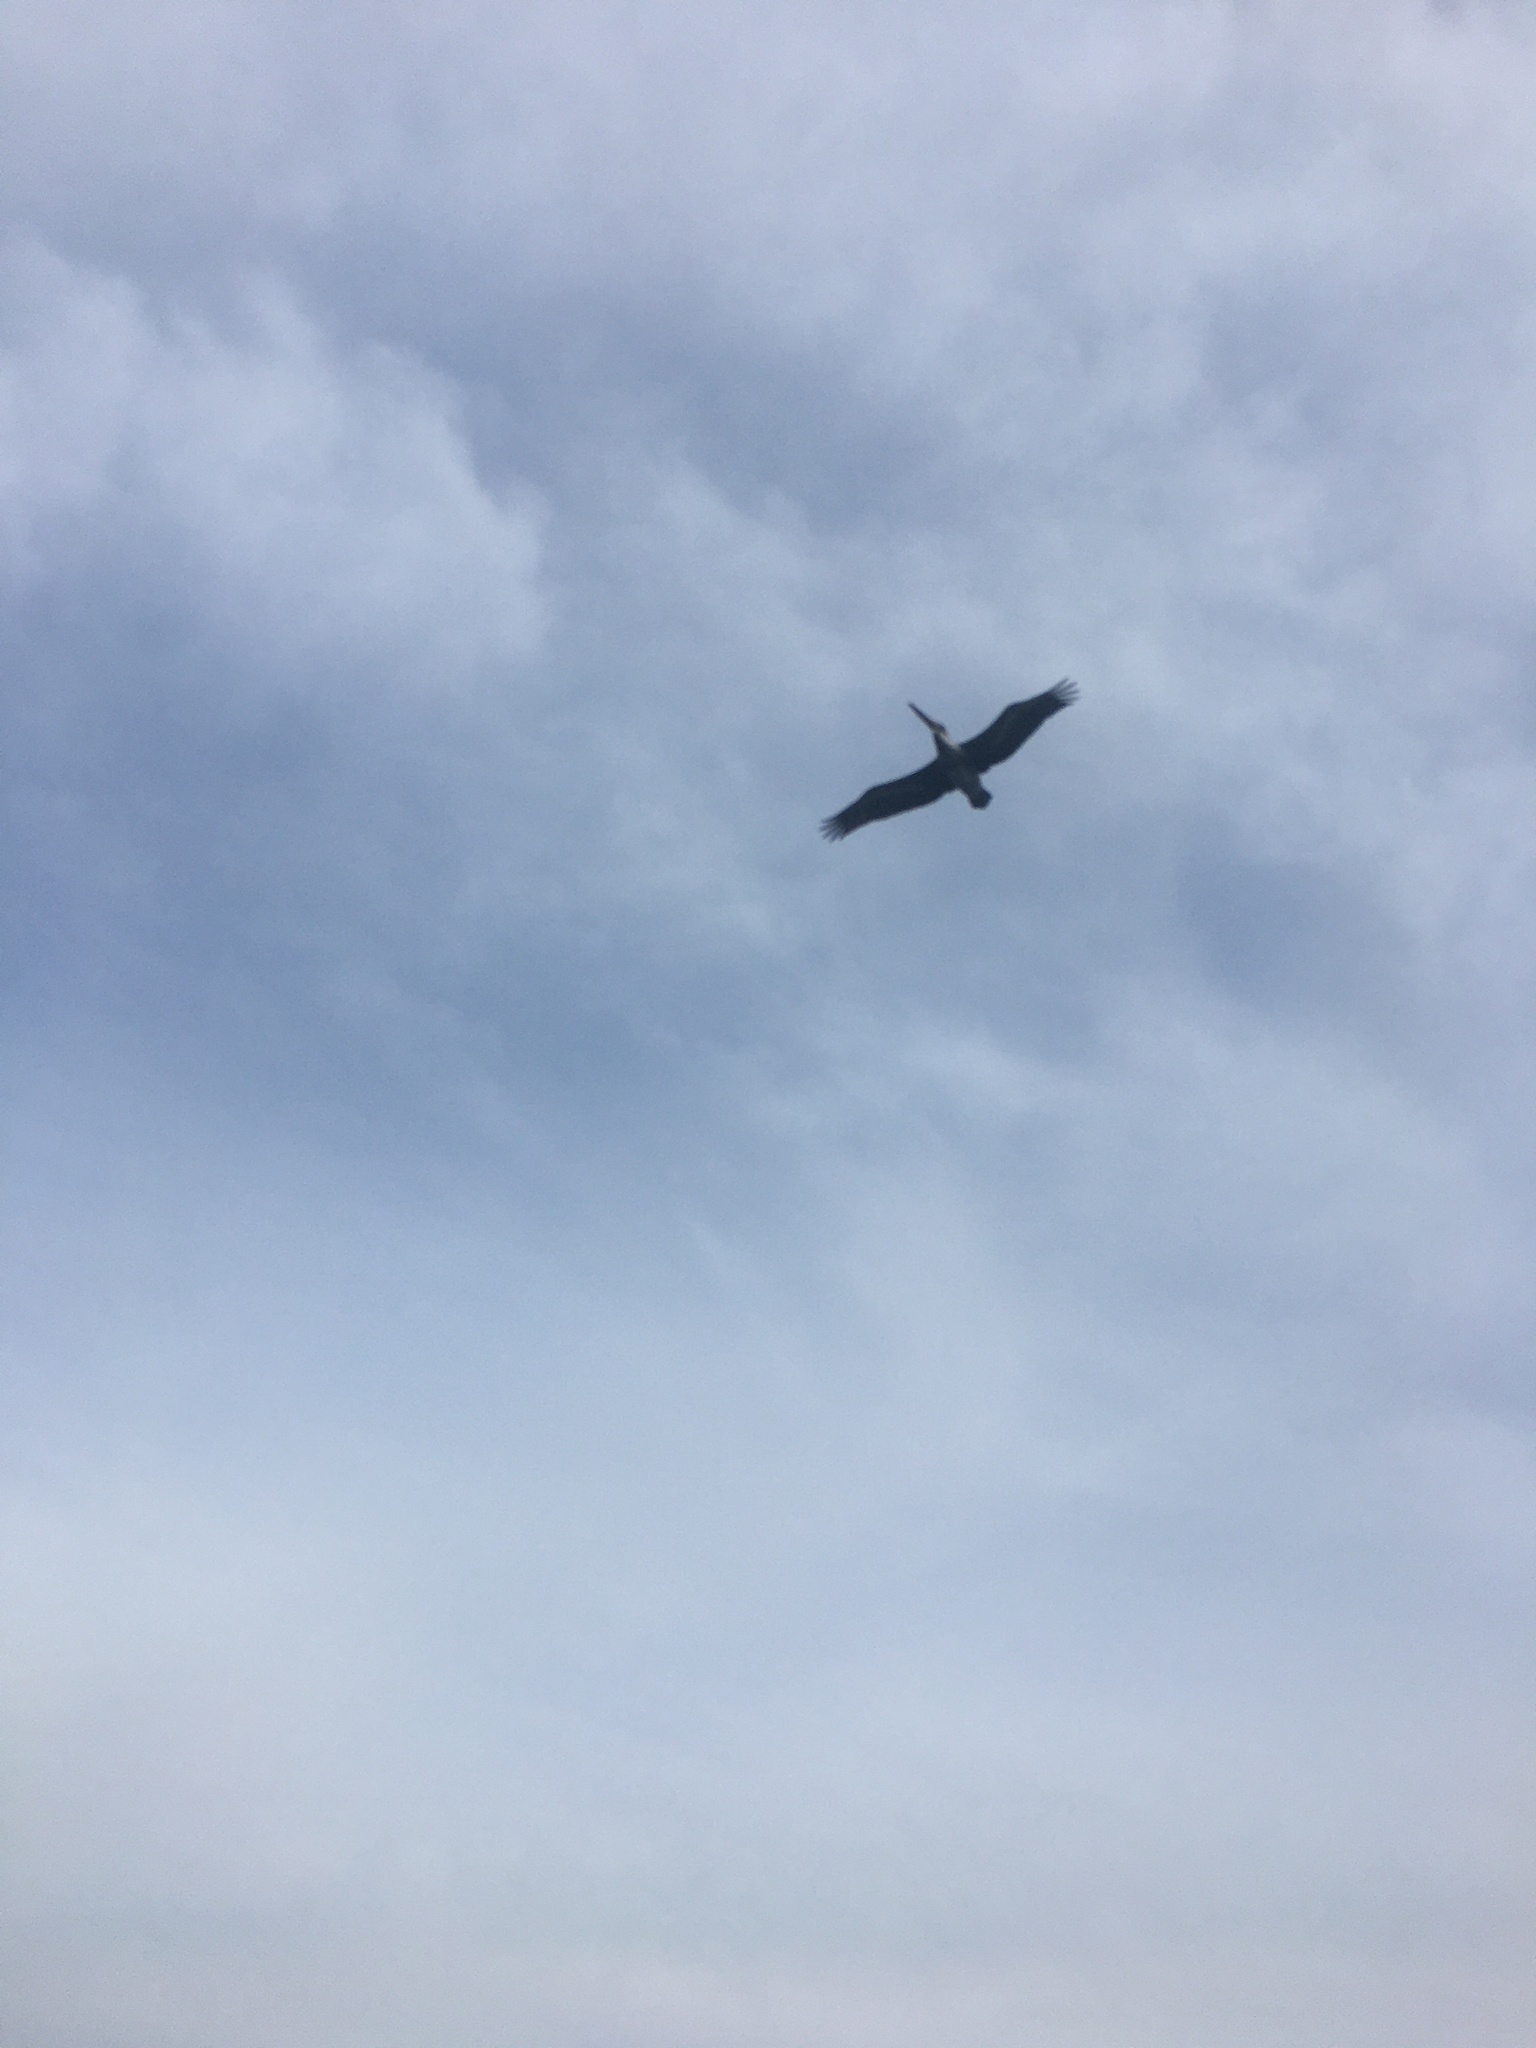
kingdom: Animalia
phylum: Chordata
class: Aves
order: Pelecaniformes
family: Pelecanidae
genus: Pelecanus
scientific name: Pelecanus occidentalis
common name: Brown pelican
